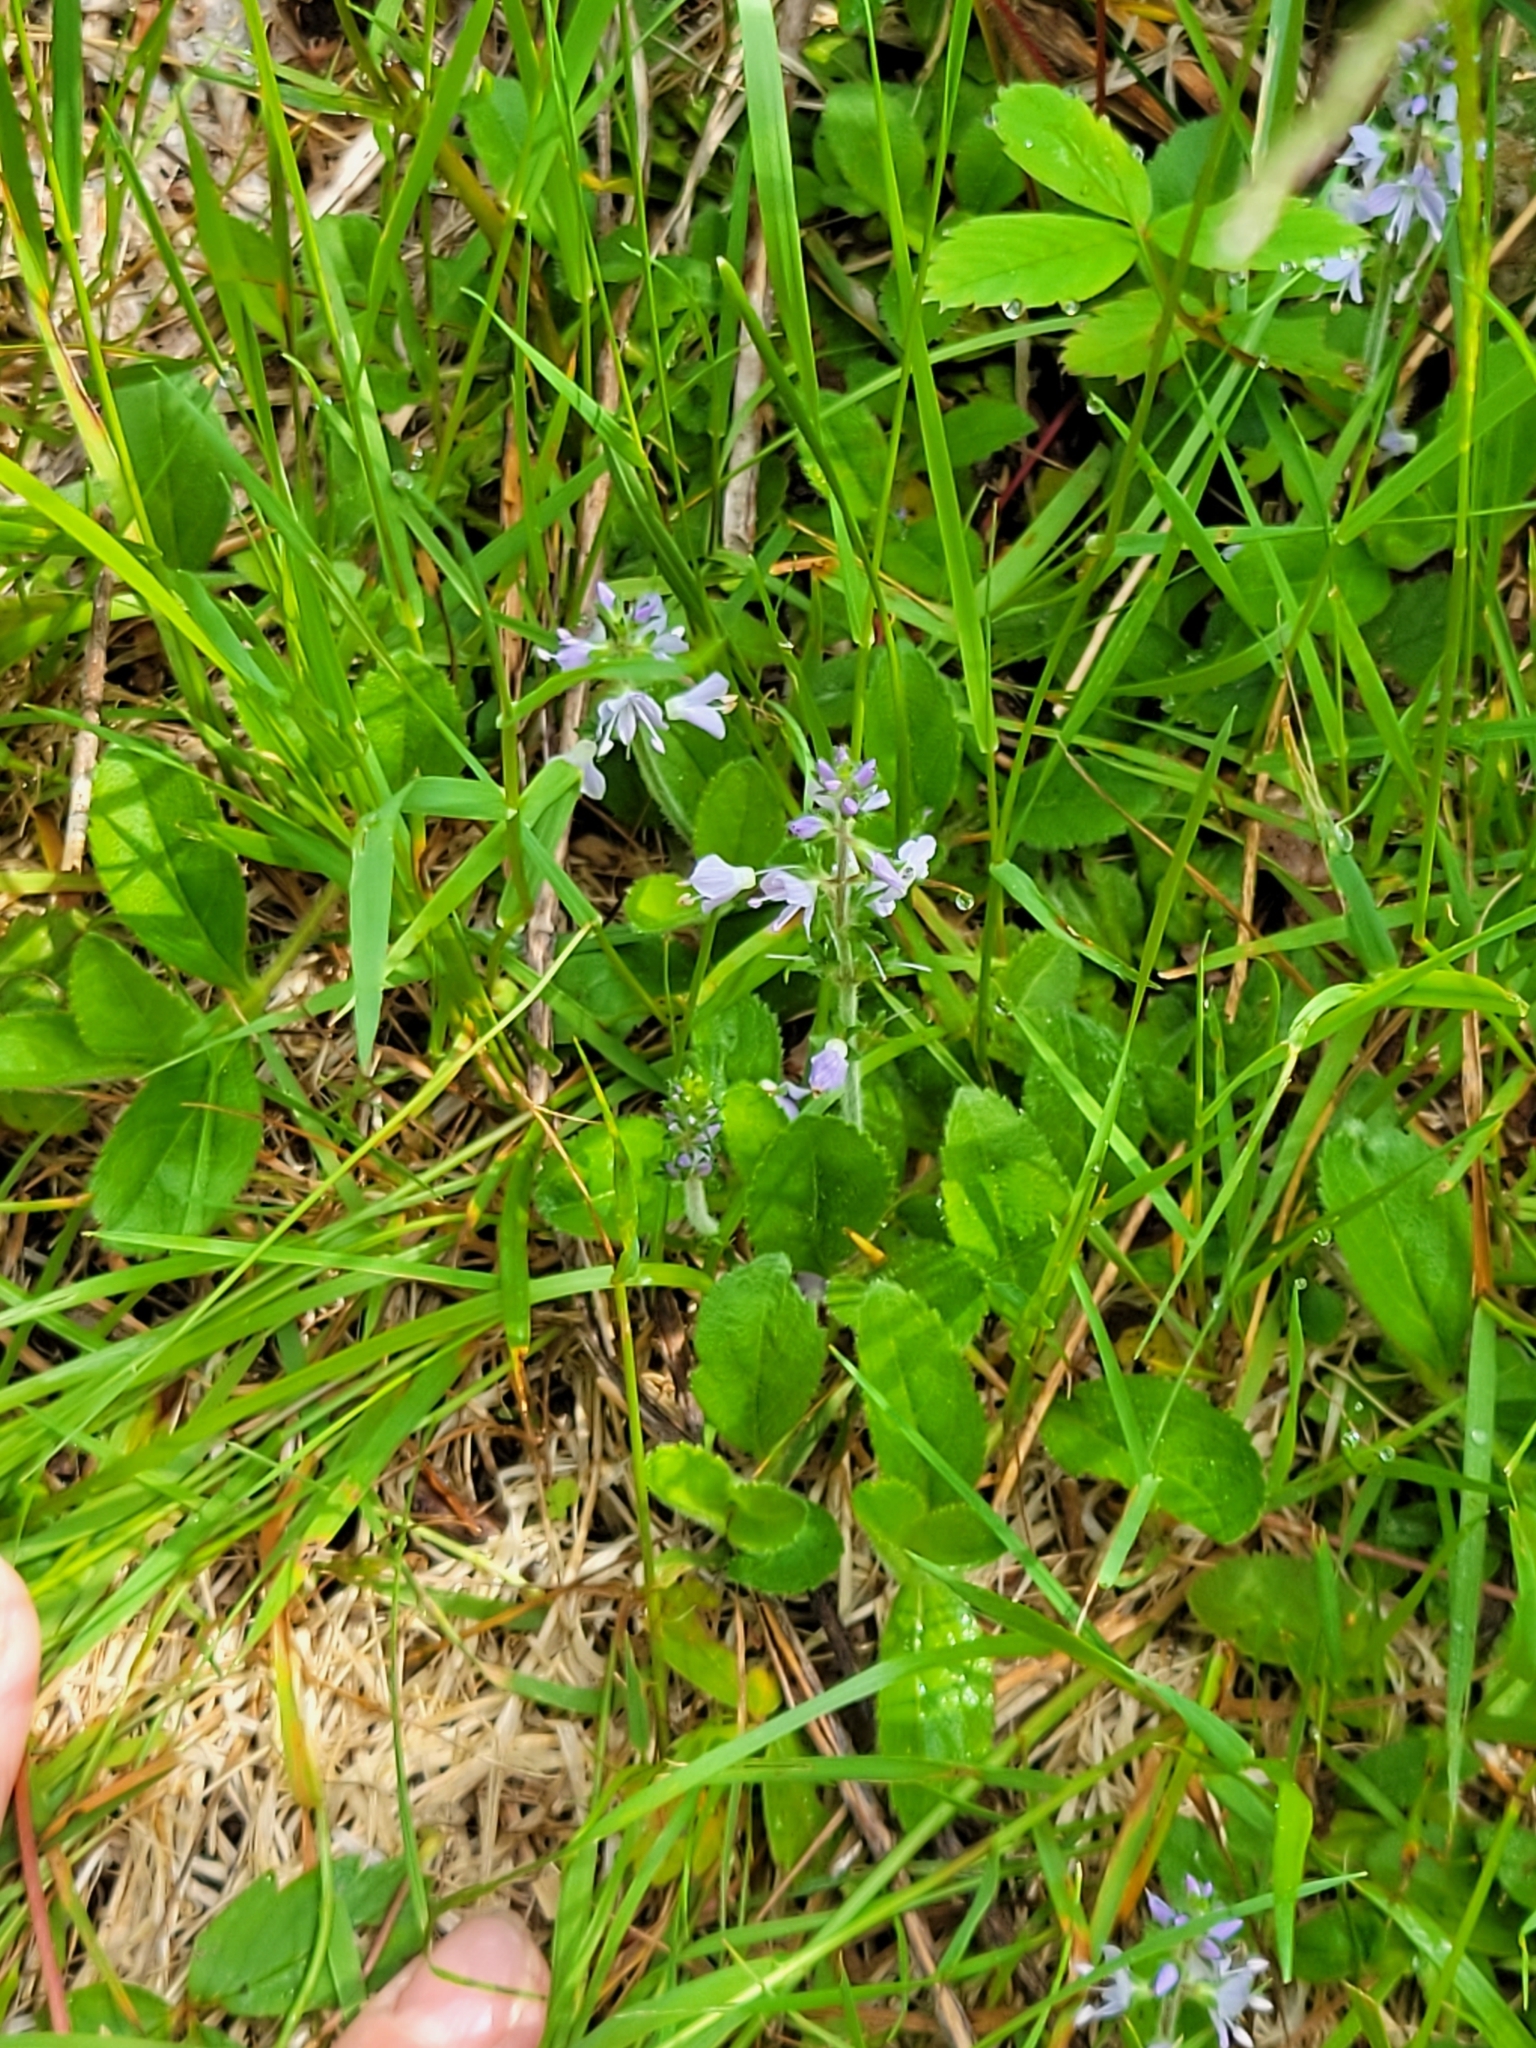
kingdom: Plantae
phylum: Tracheophyta
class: Magnoliopsida
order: Lamiales
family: Plantaginaceae
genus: Veronica
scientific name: Veronica officinalis
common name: Common speedwell
